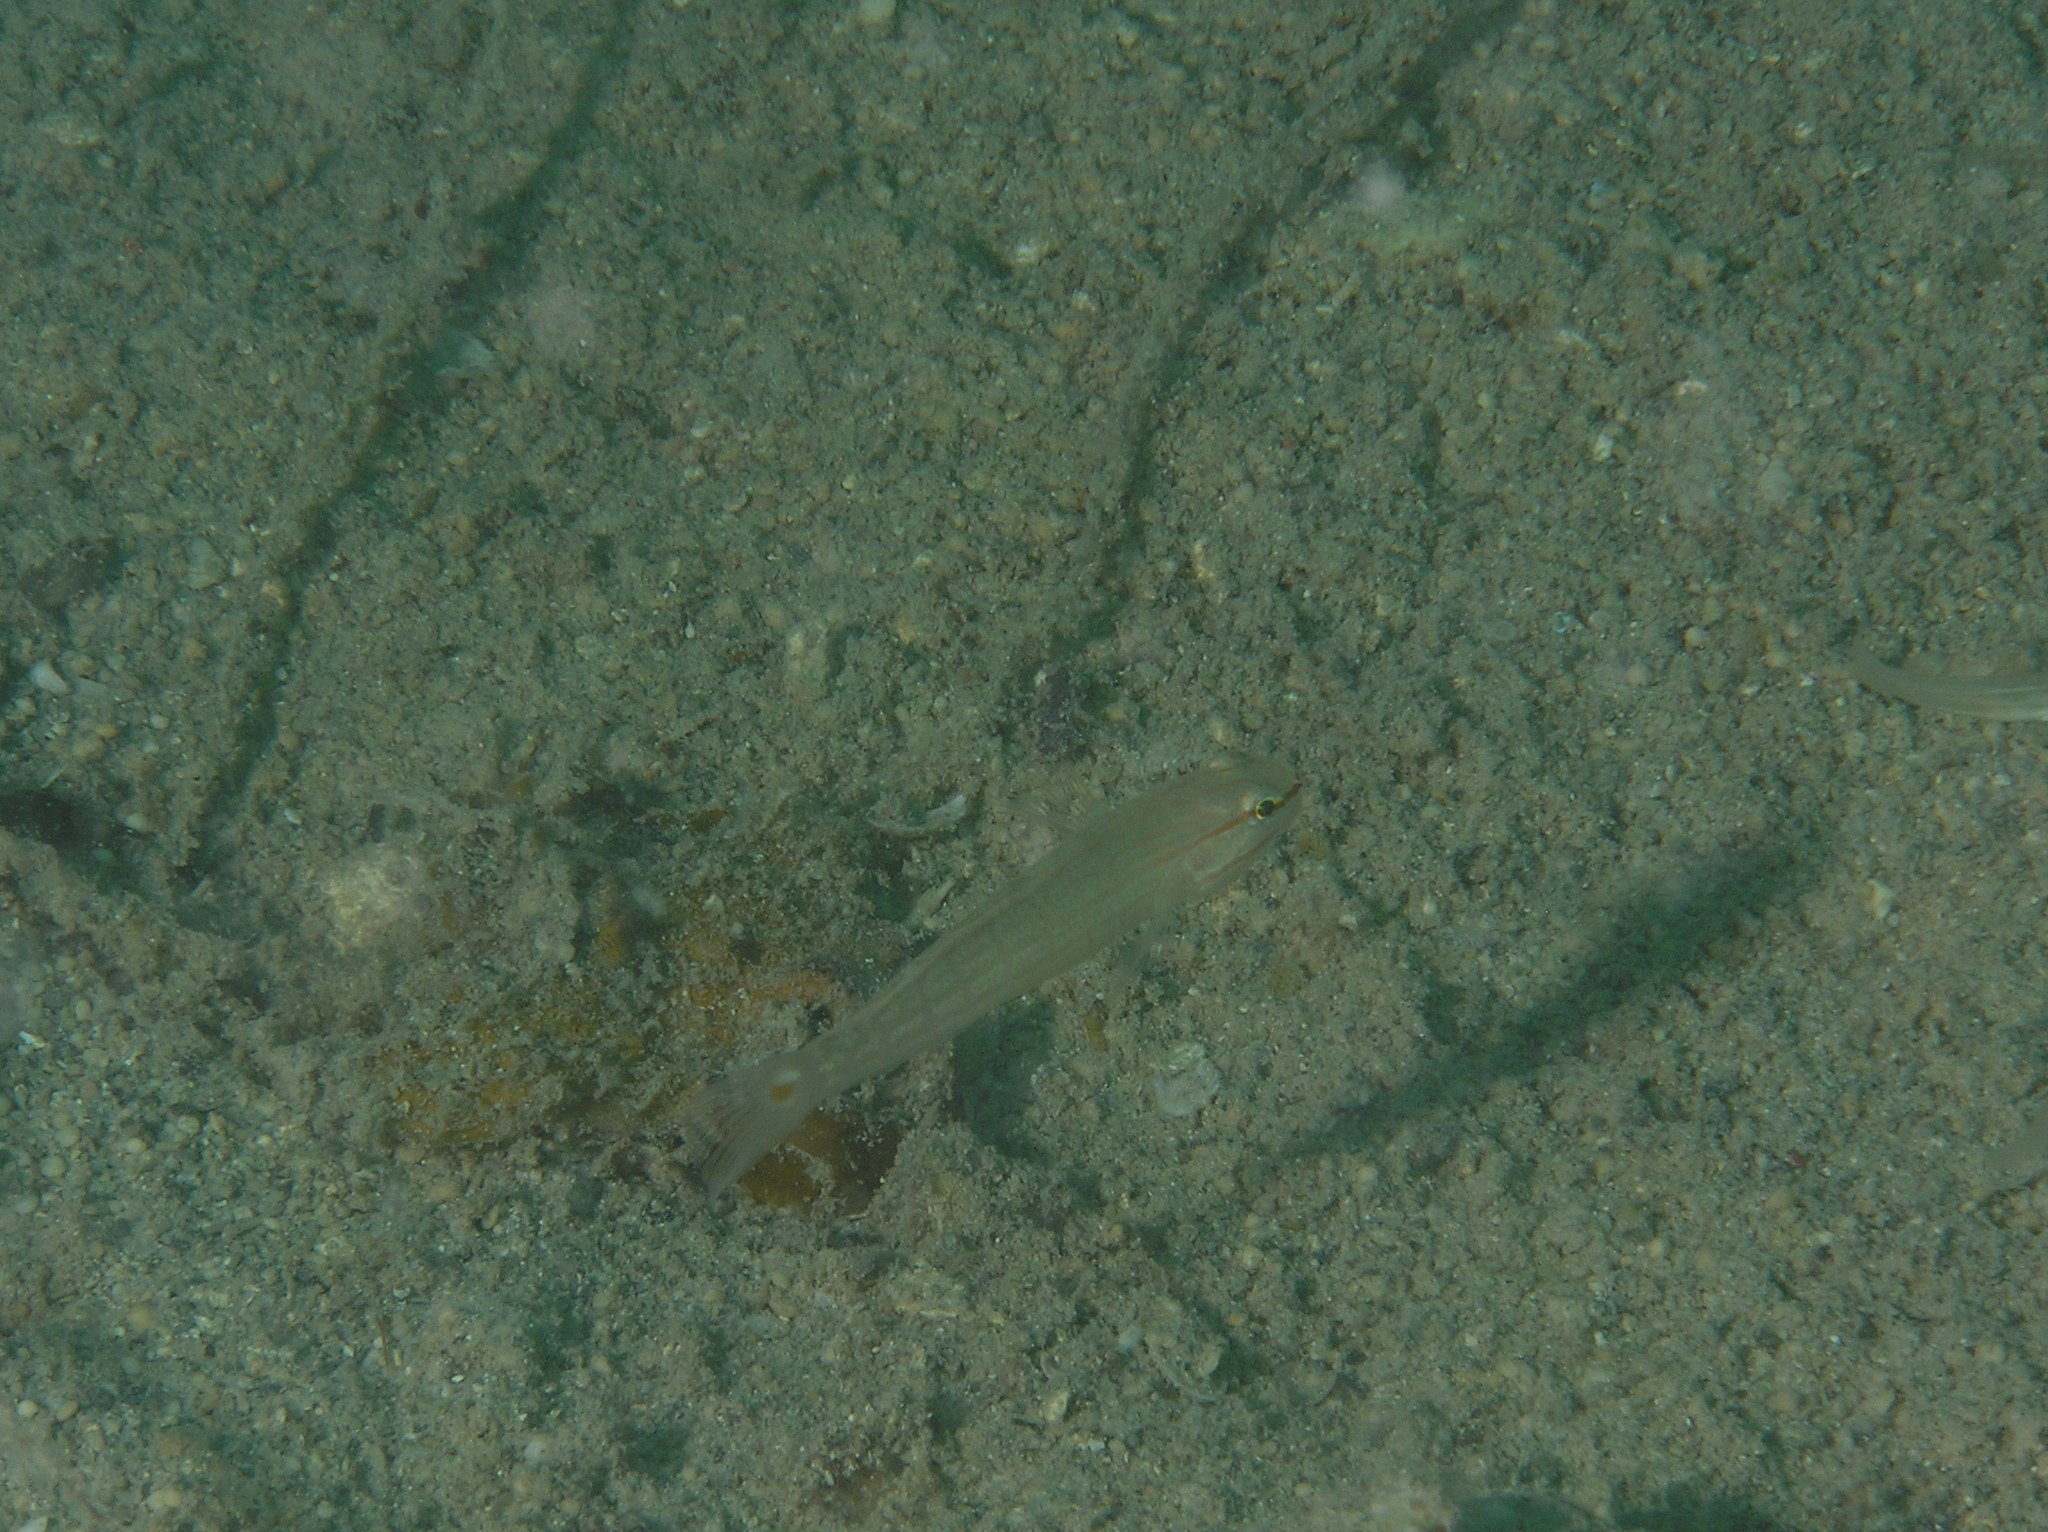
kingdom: Animalia
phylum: Chordata
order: Perciformes
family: Gobiidae
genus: Amblygobius
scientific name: Amblygobius decussatus
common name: Crosshatch goby
